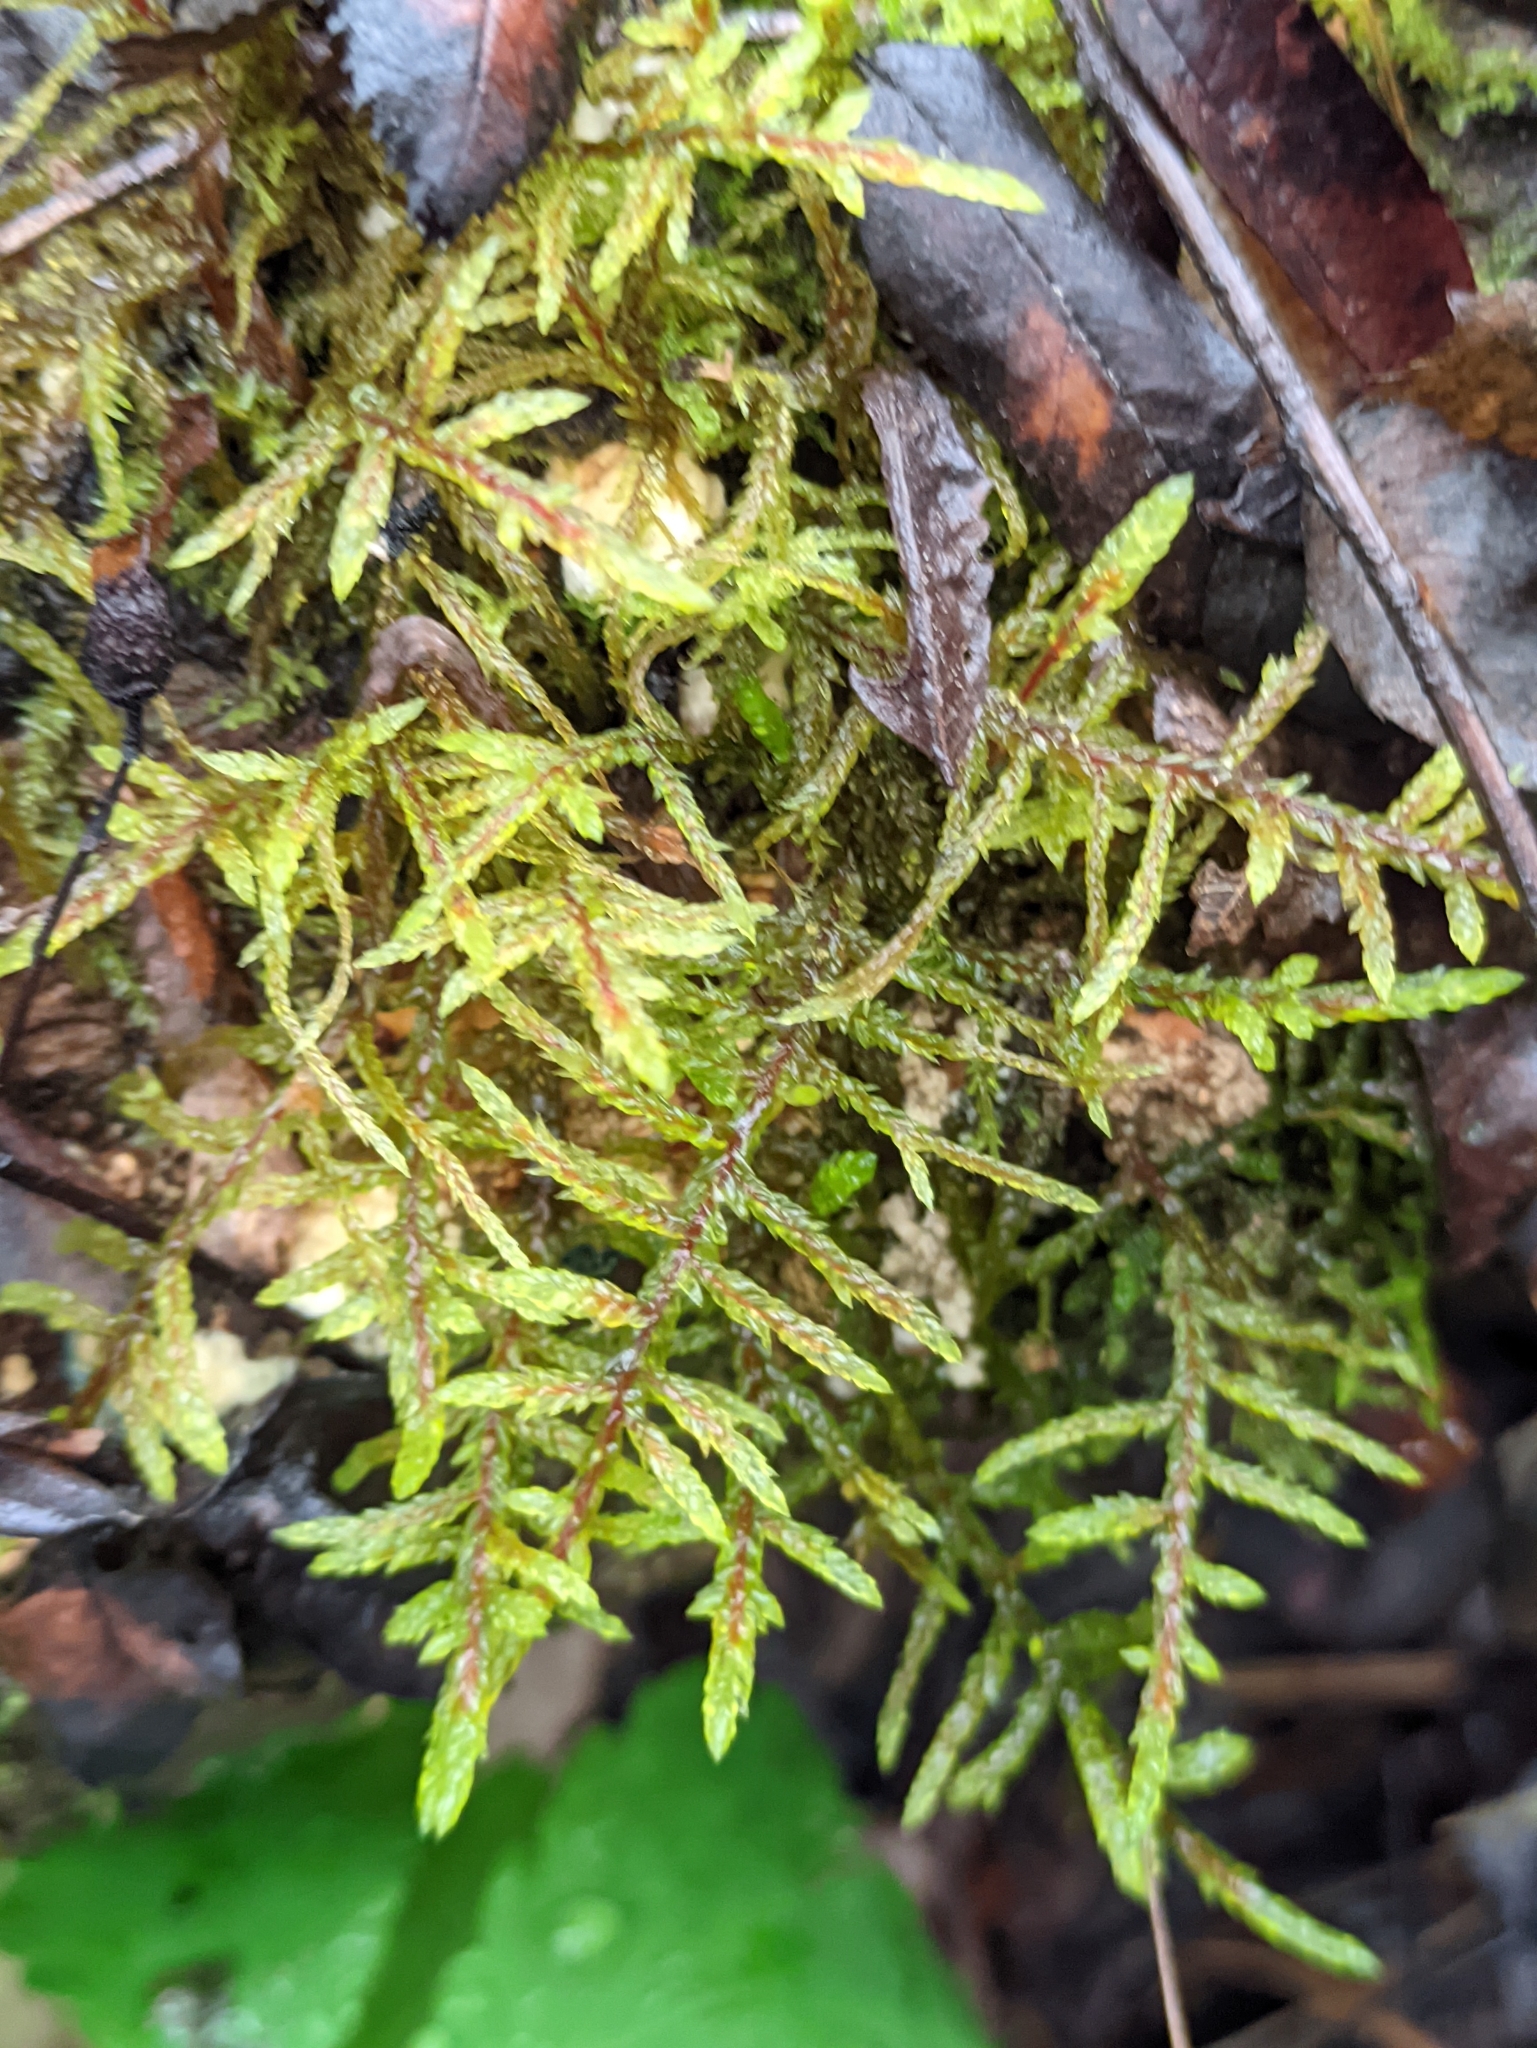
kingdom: Plantae
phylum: Bryophyta
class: Bryopsida
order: Hypnales
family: Hylocomiaceae
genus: Pleurozium
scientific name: Pleurozium schreberi
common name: Red-stemmed feather moss
